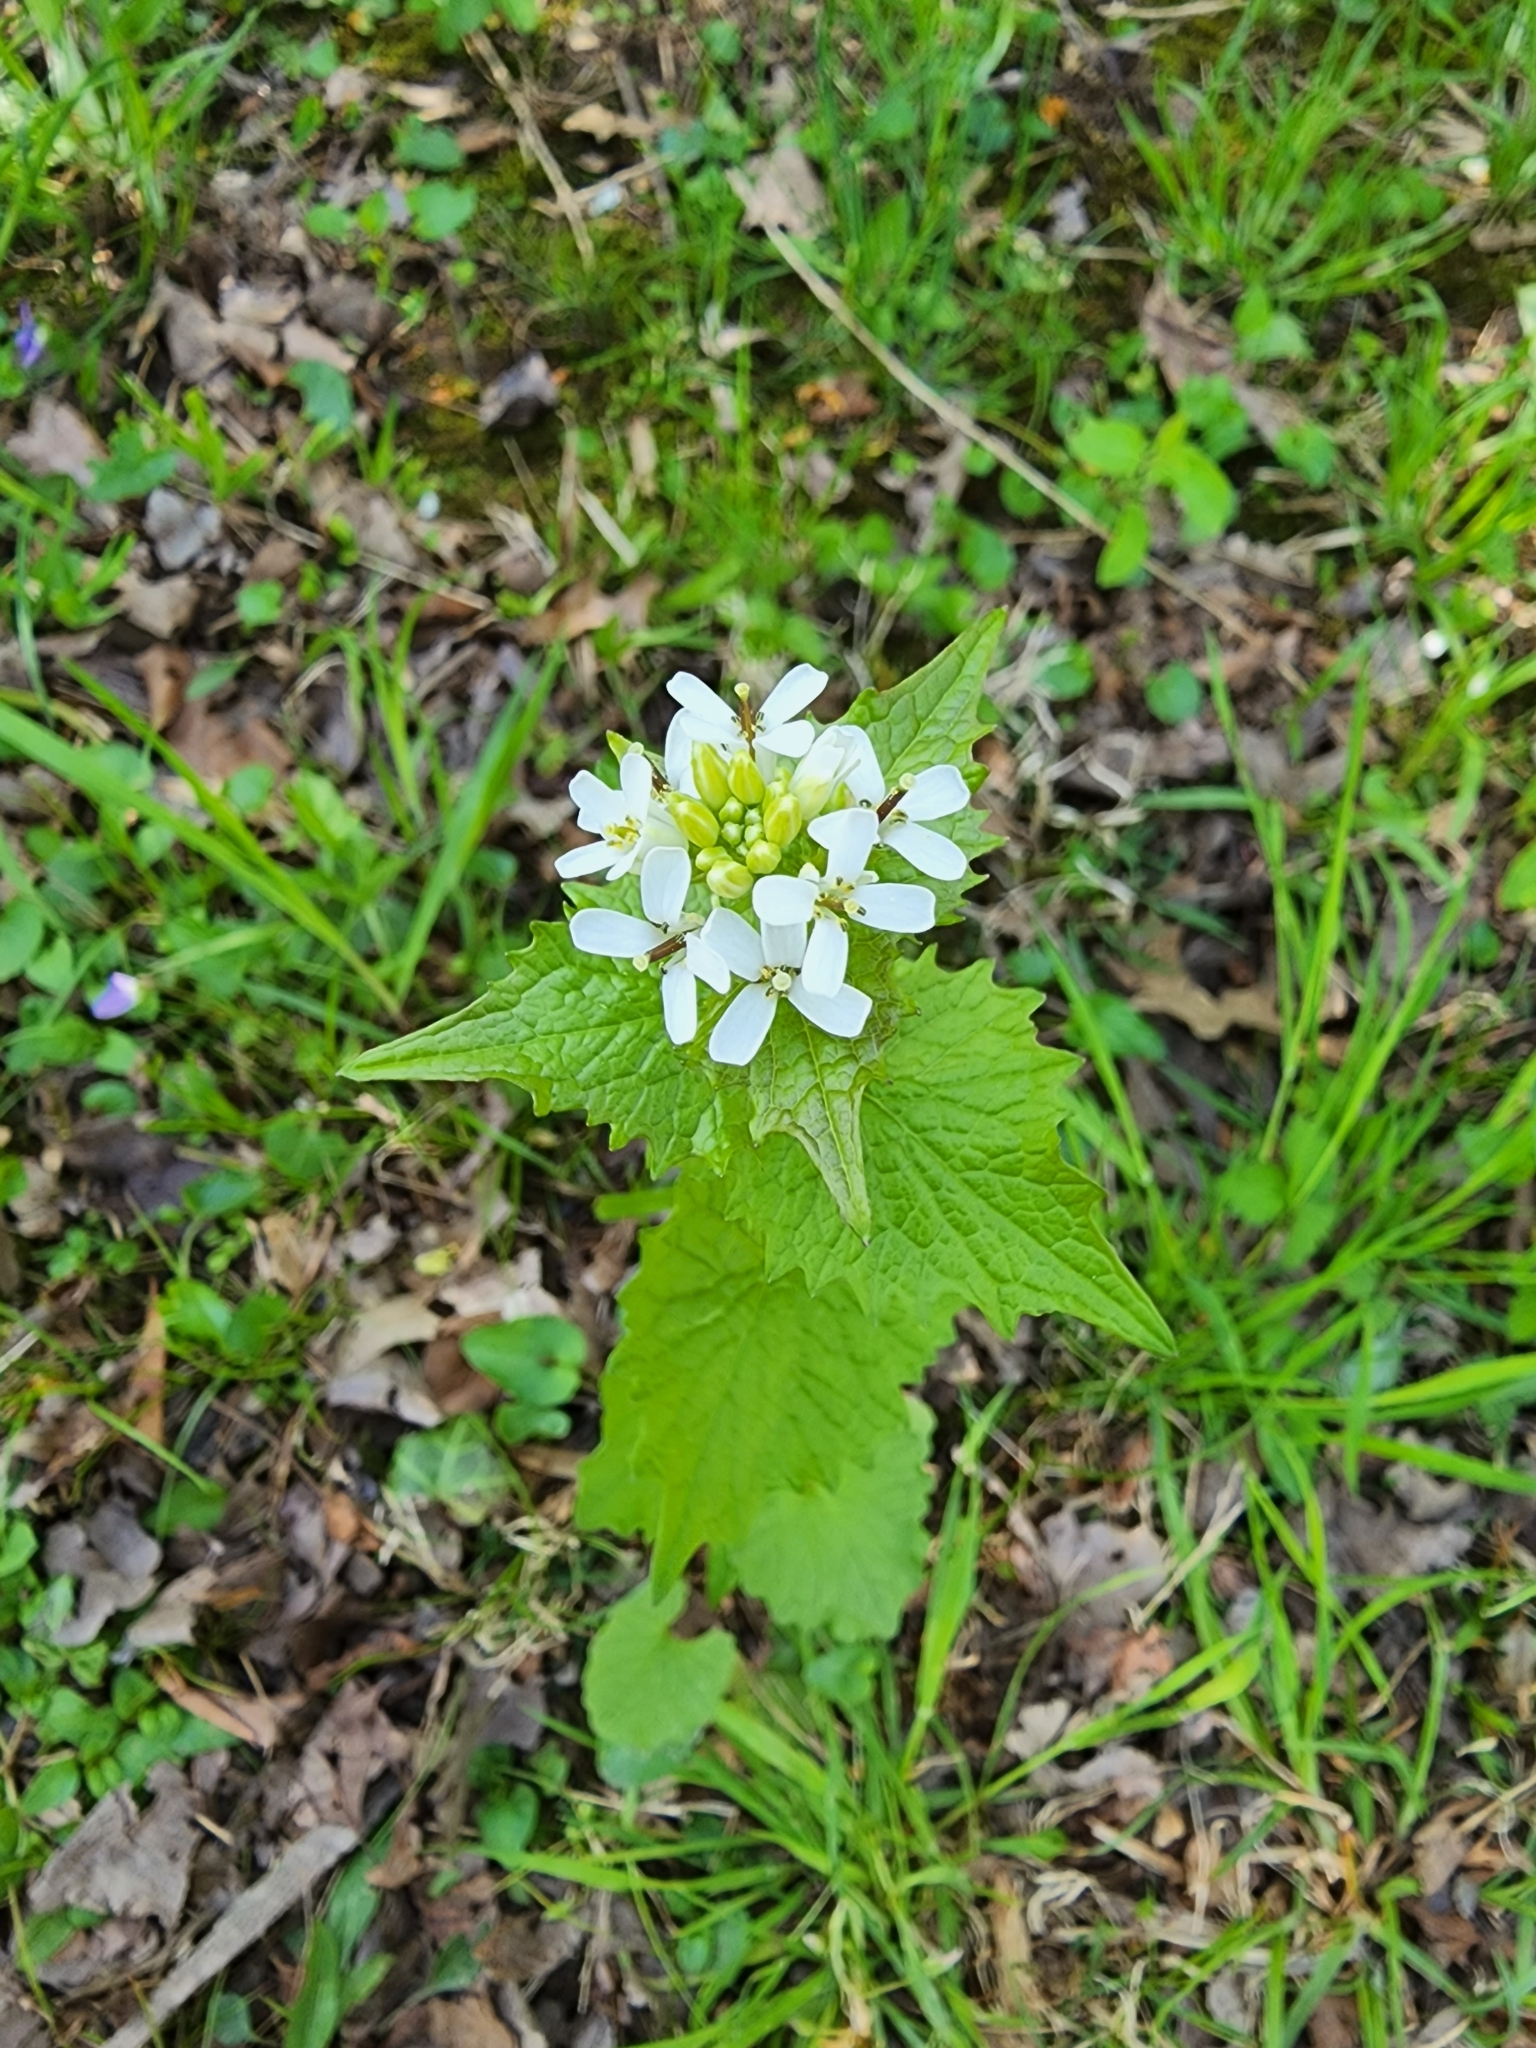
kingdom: Plantae
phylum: Tracheophyta
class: Magnoliopsida
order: Brassicales
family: Brassicaceae
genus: Alliaria
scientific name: Alliaria petiolata
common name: Garlic mustard
